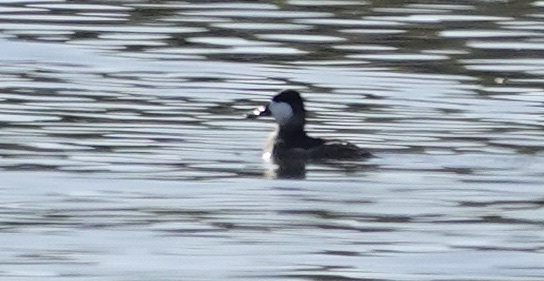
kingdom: Animalia
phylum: Chordata
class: Aves
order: Anseriformes
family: Anatidae
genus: Oxyura
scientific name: Oxyura jamaicensis
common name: Ruddy duck
